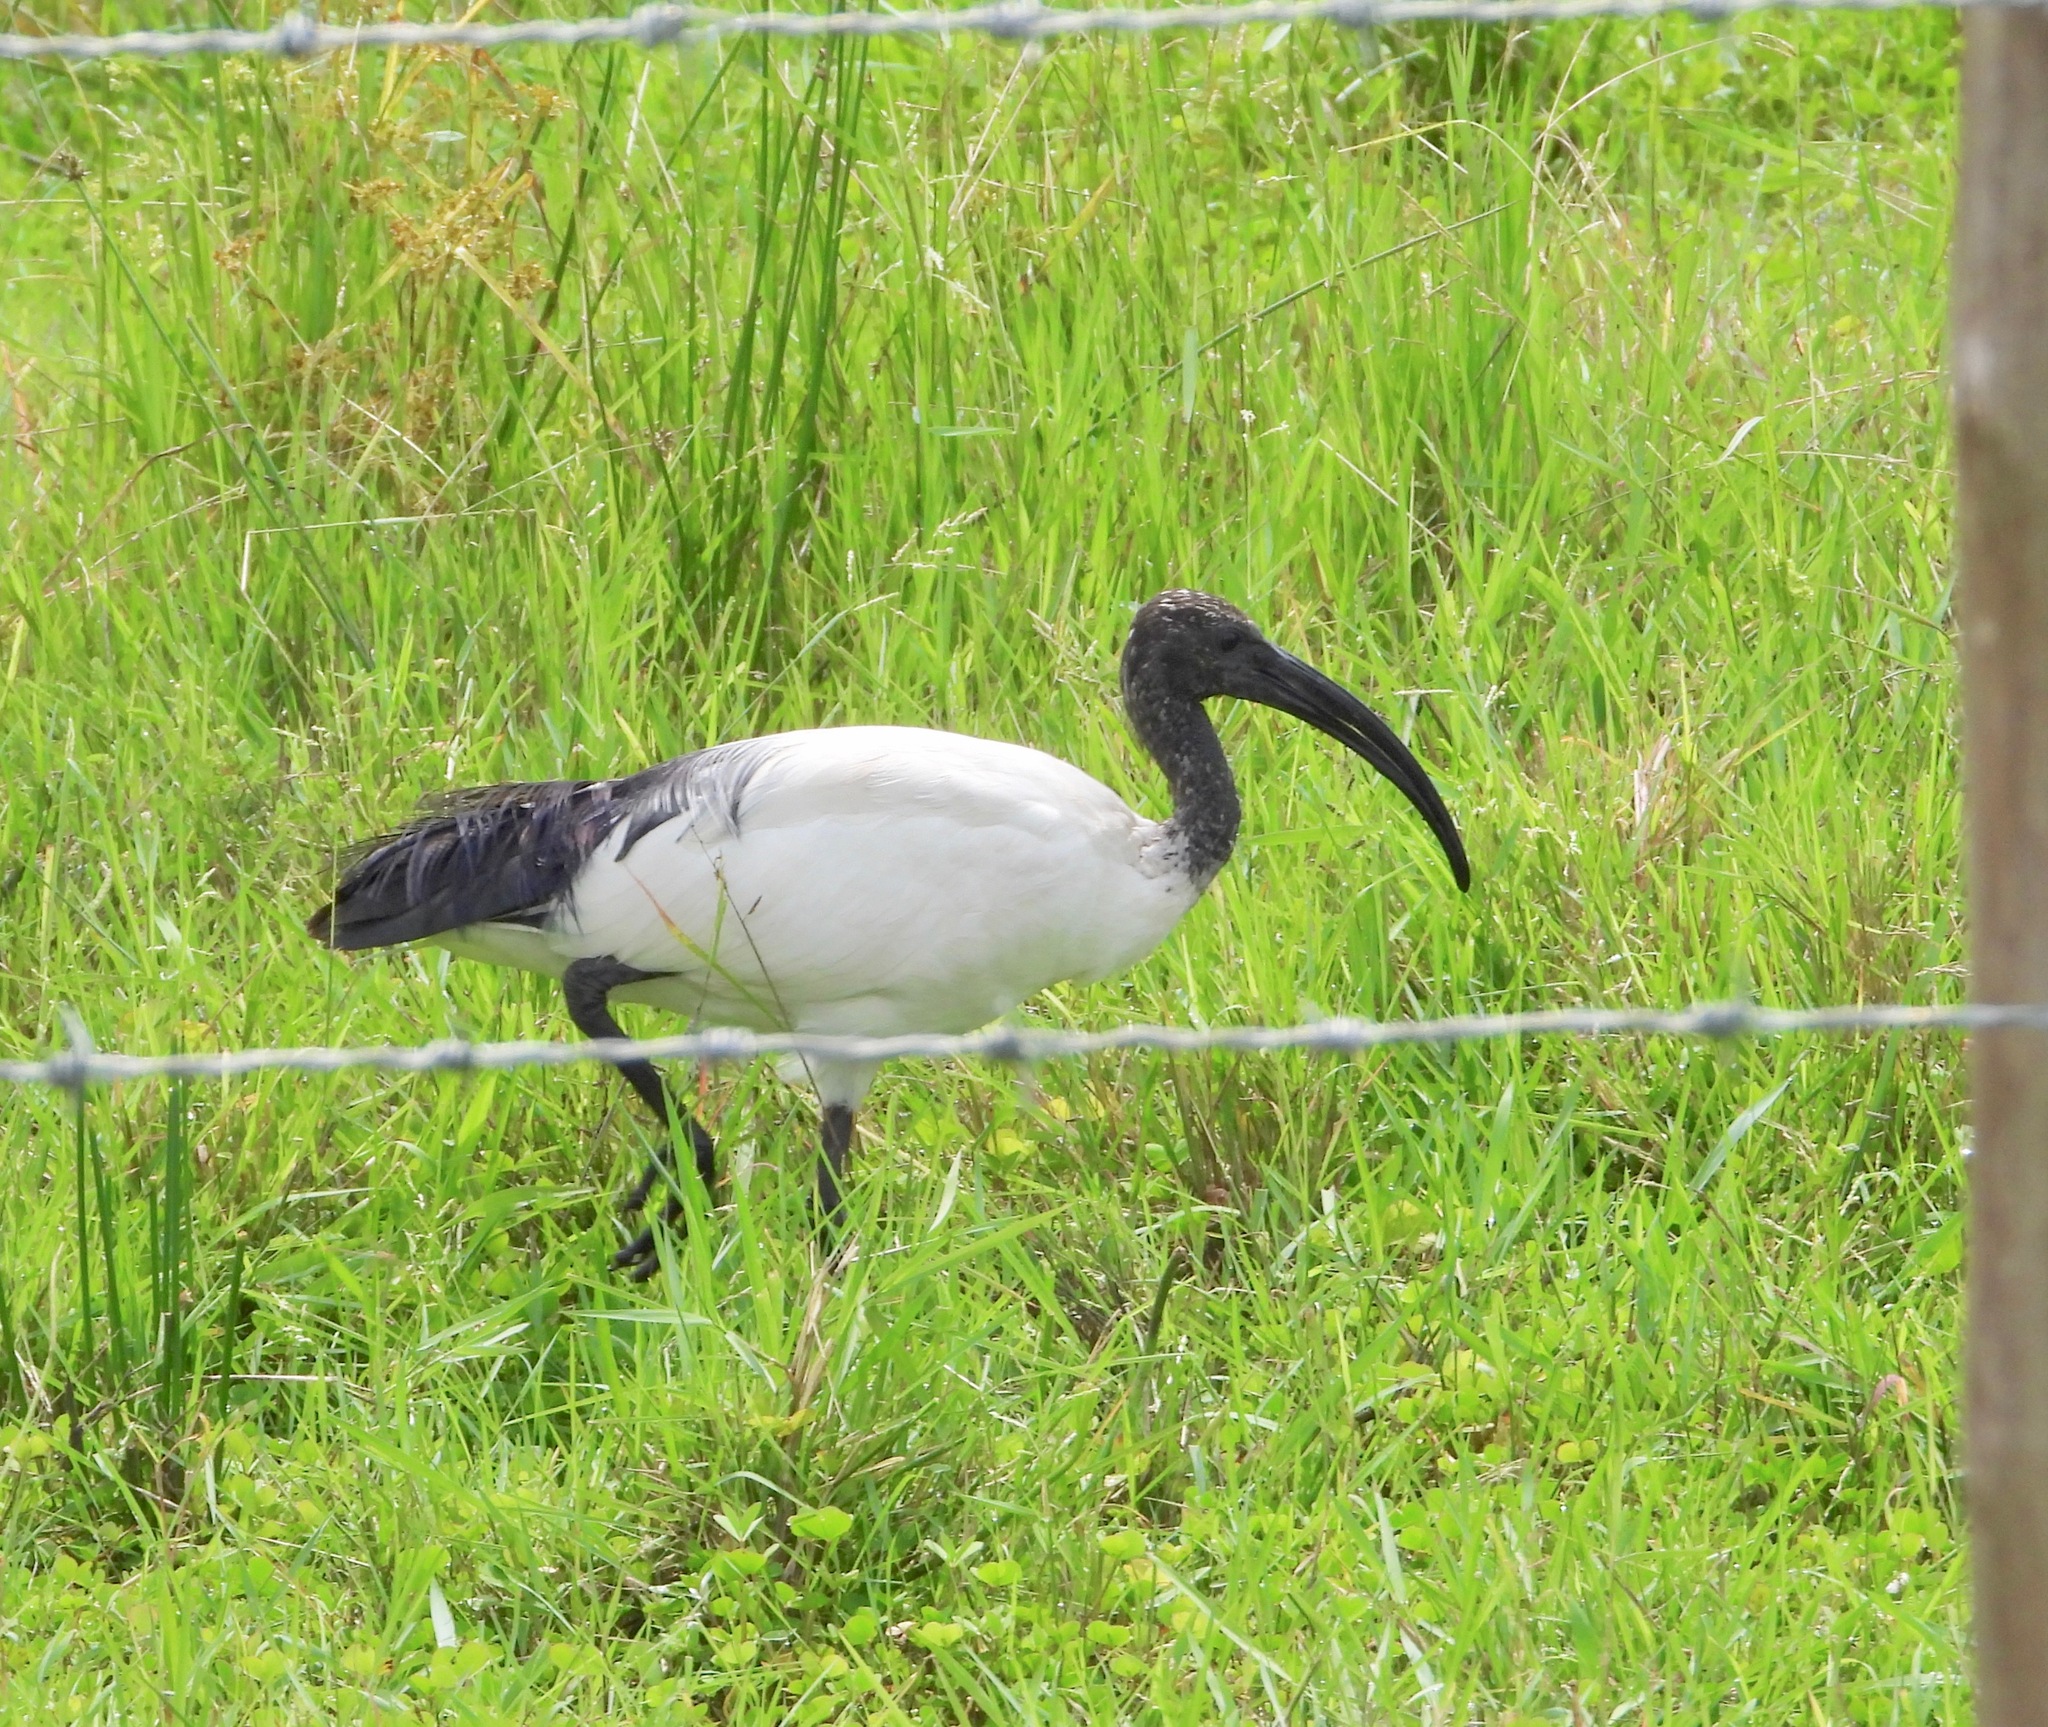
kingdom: Animalia
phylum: Chordata
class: Aves
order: Pelecaniformes
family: Threskiornithidae
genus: Threskiornis
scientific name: Threskiornis aethiopicus
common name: Sacred ibis
